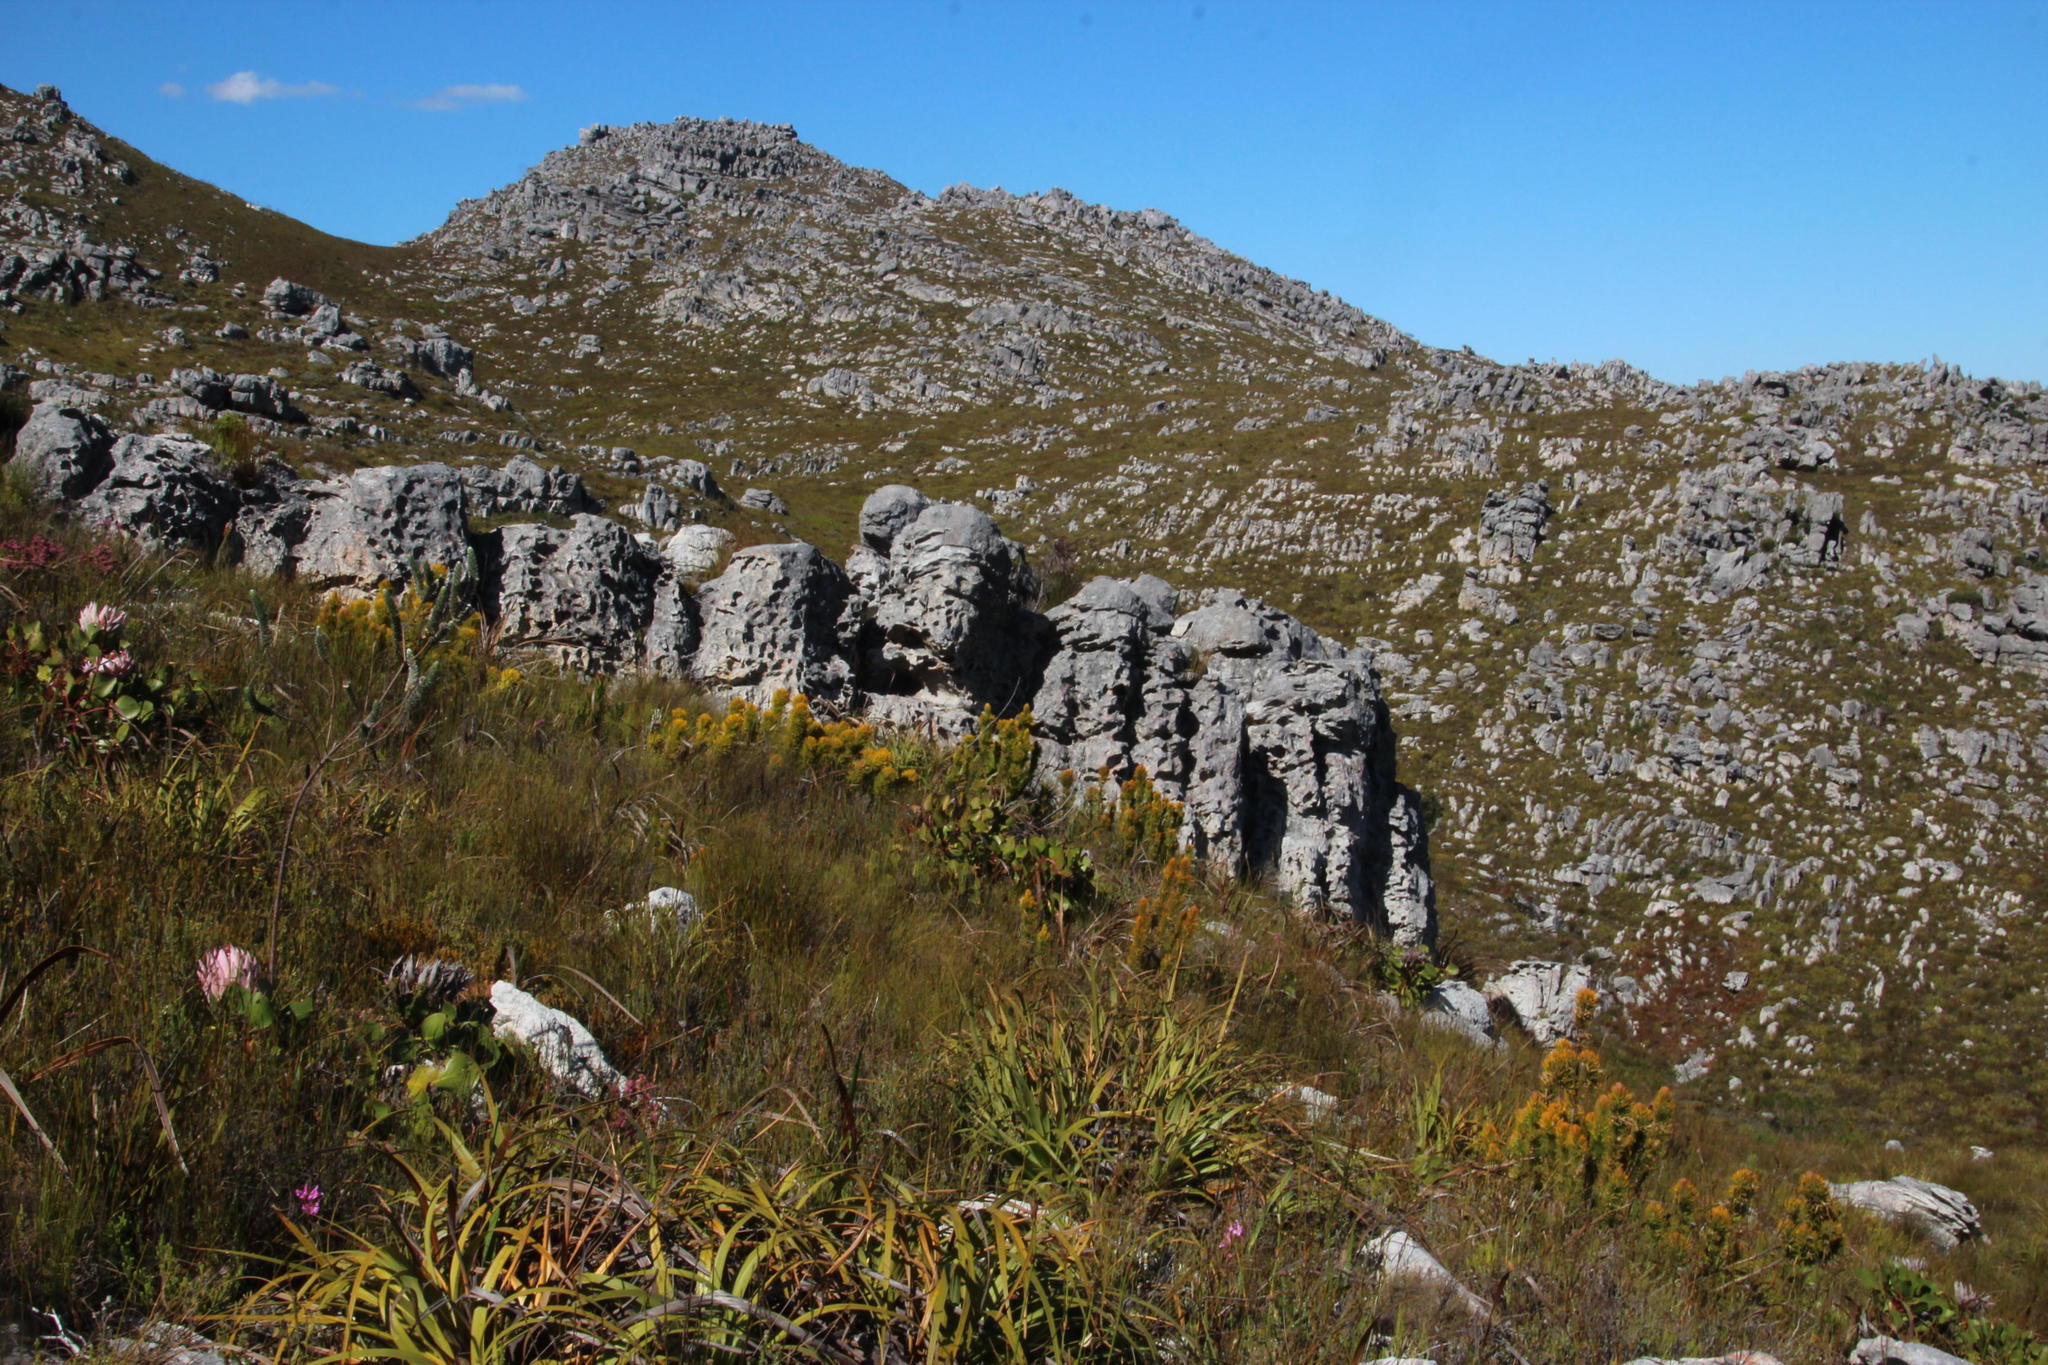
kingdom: Plantae
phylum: Tracheophyta
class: Magnoliopsida
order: Lamiales
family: Stilbaceae
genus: Retzia
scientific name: Retzia capensis
